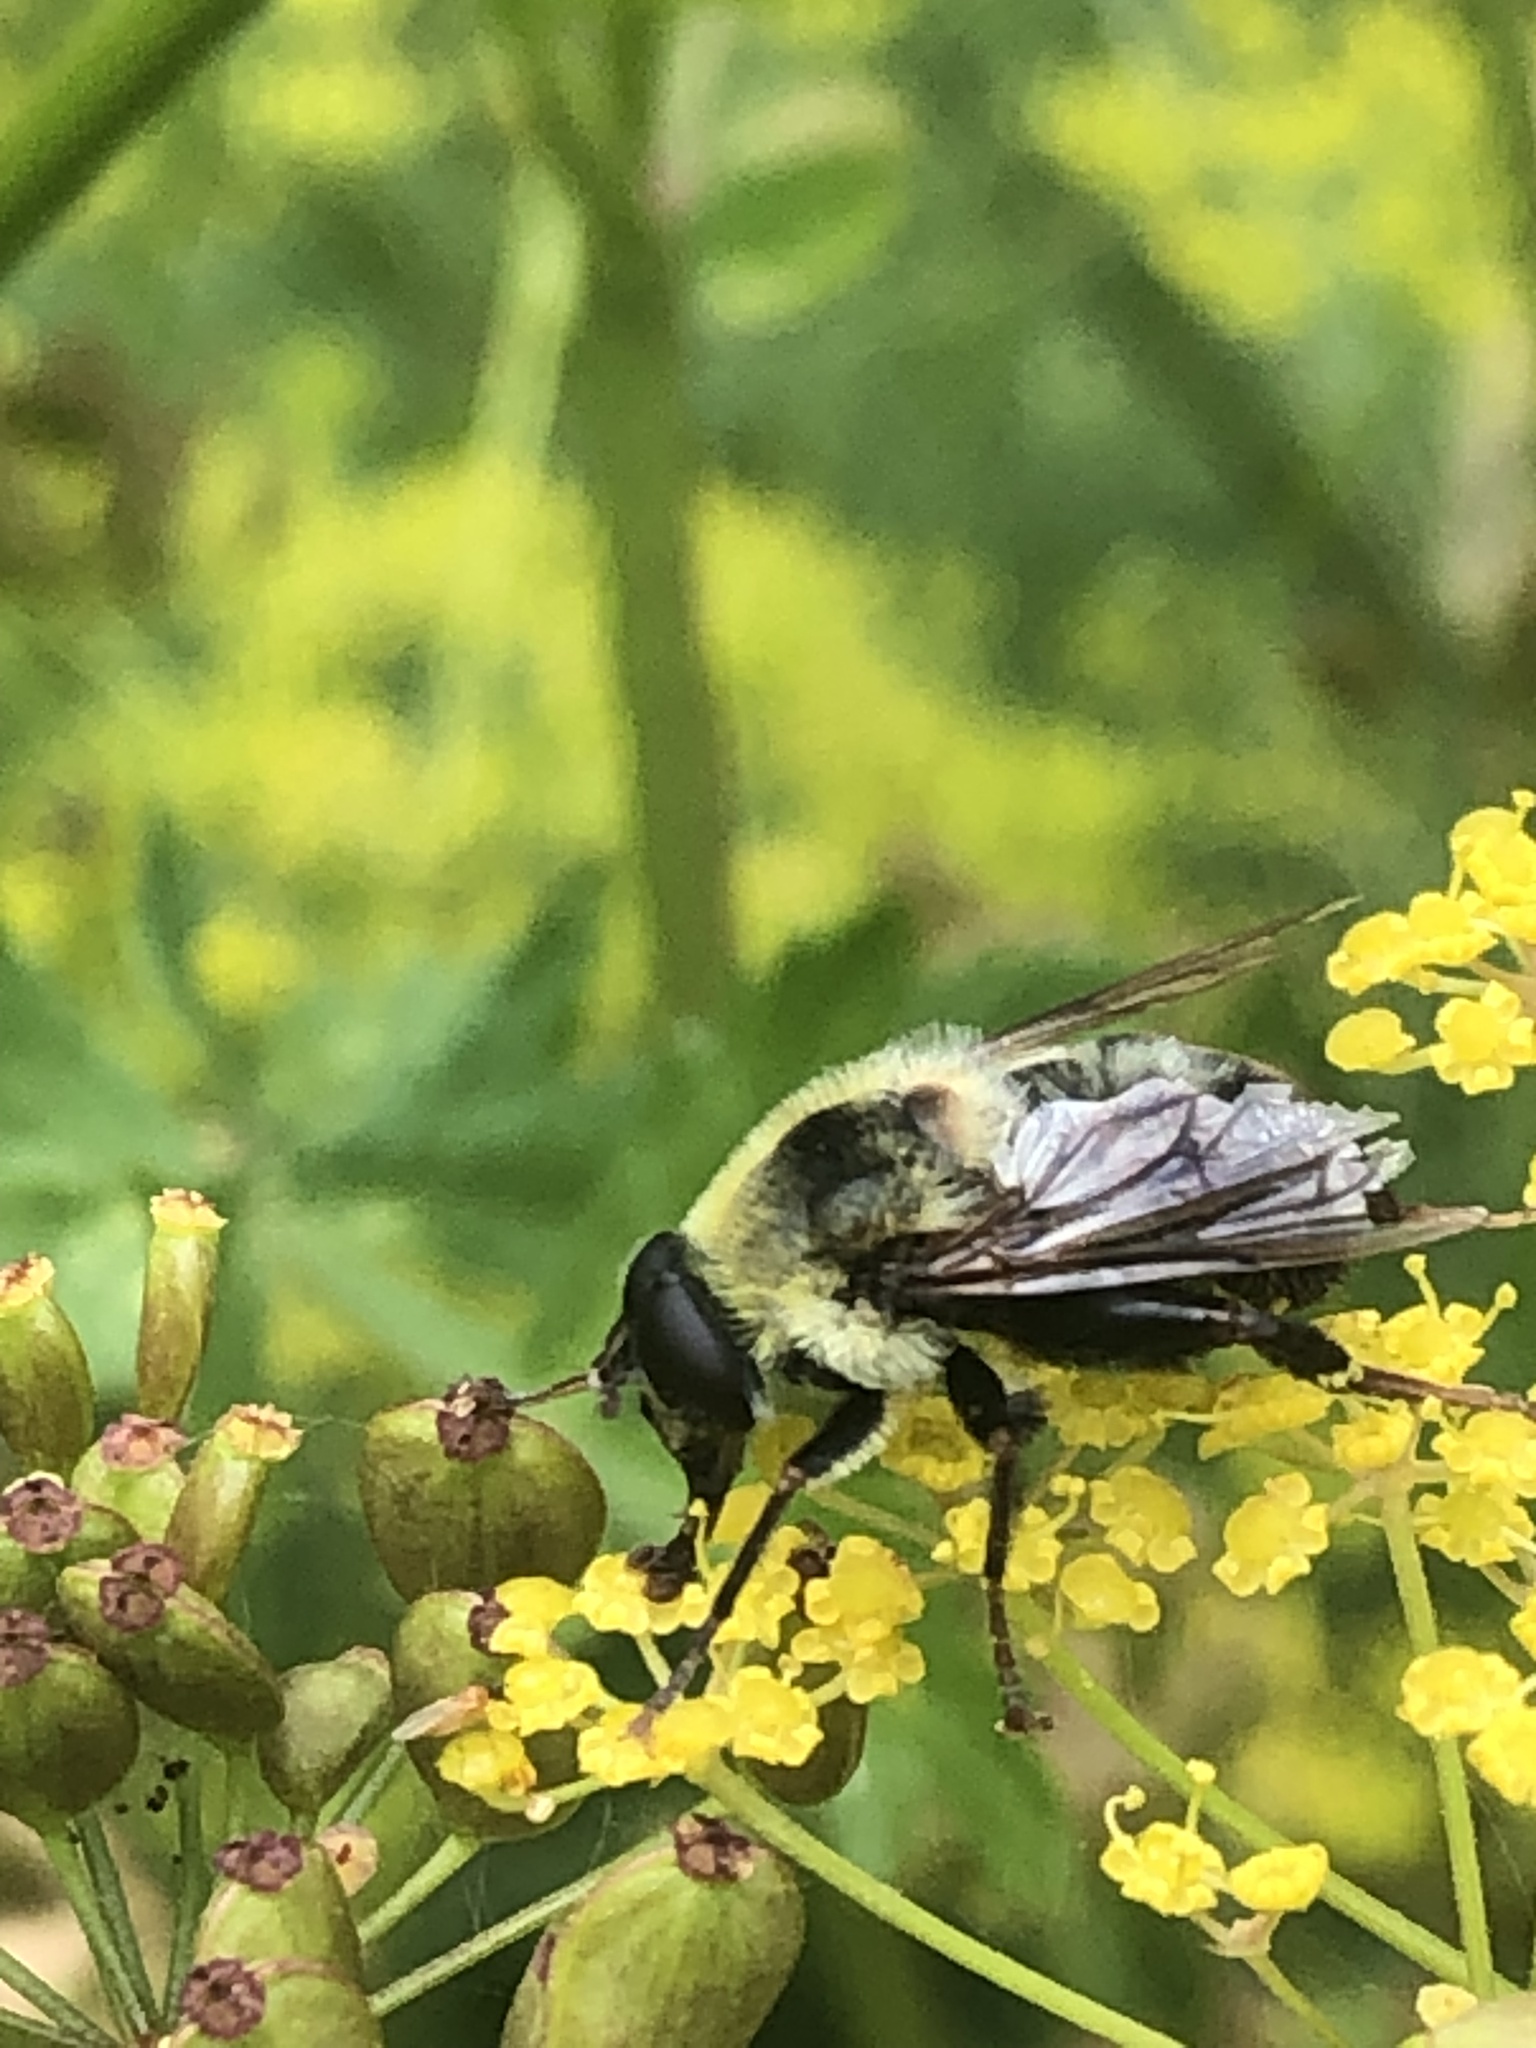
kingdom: Animalia
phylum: Arthropoda
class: Insecta
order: Diptera
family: Syrphidae
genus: Imatisma
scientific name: Imatisma posticata
